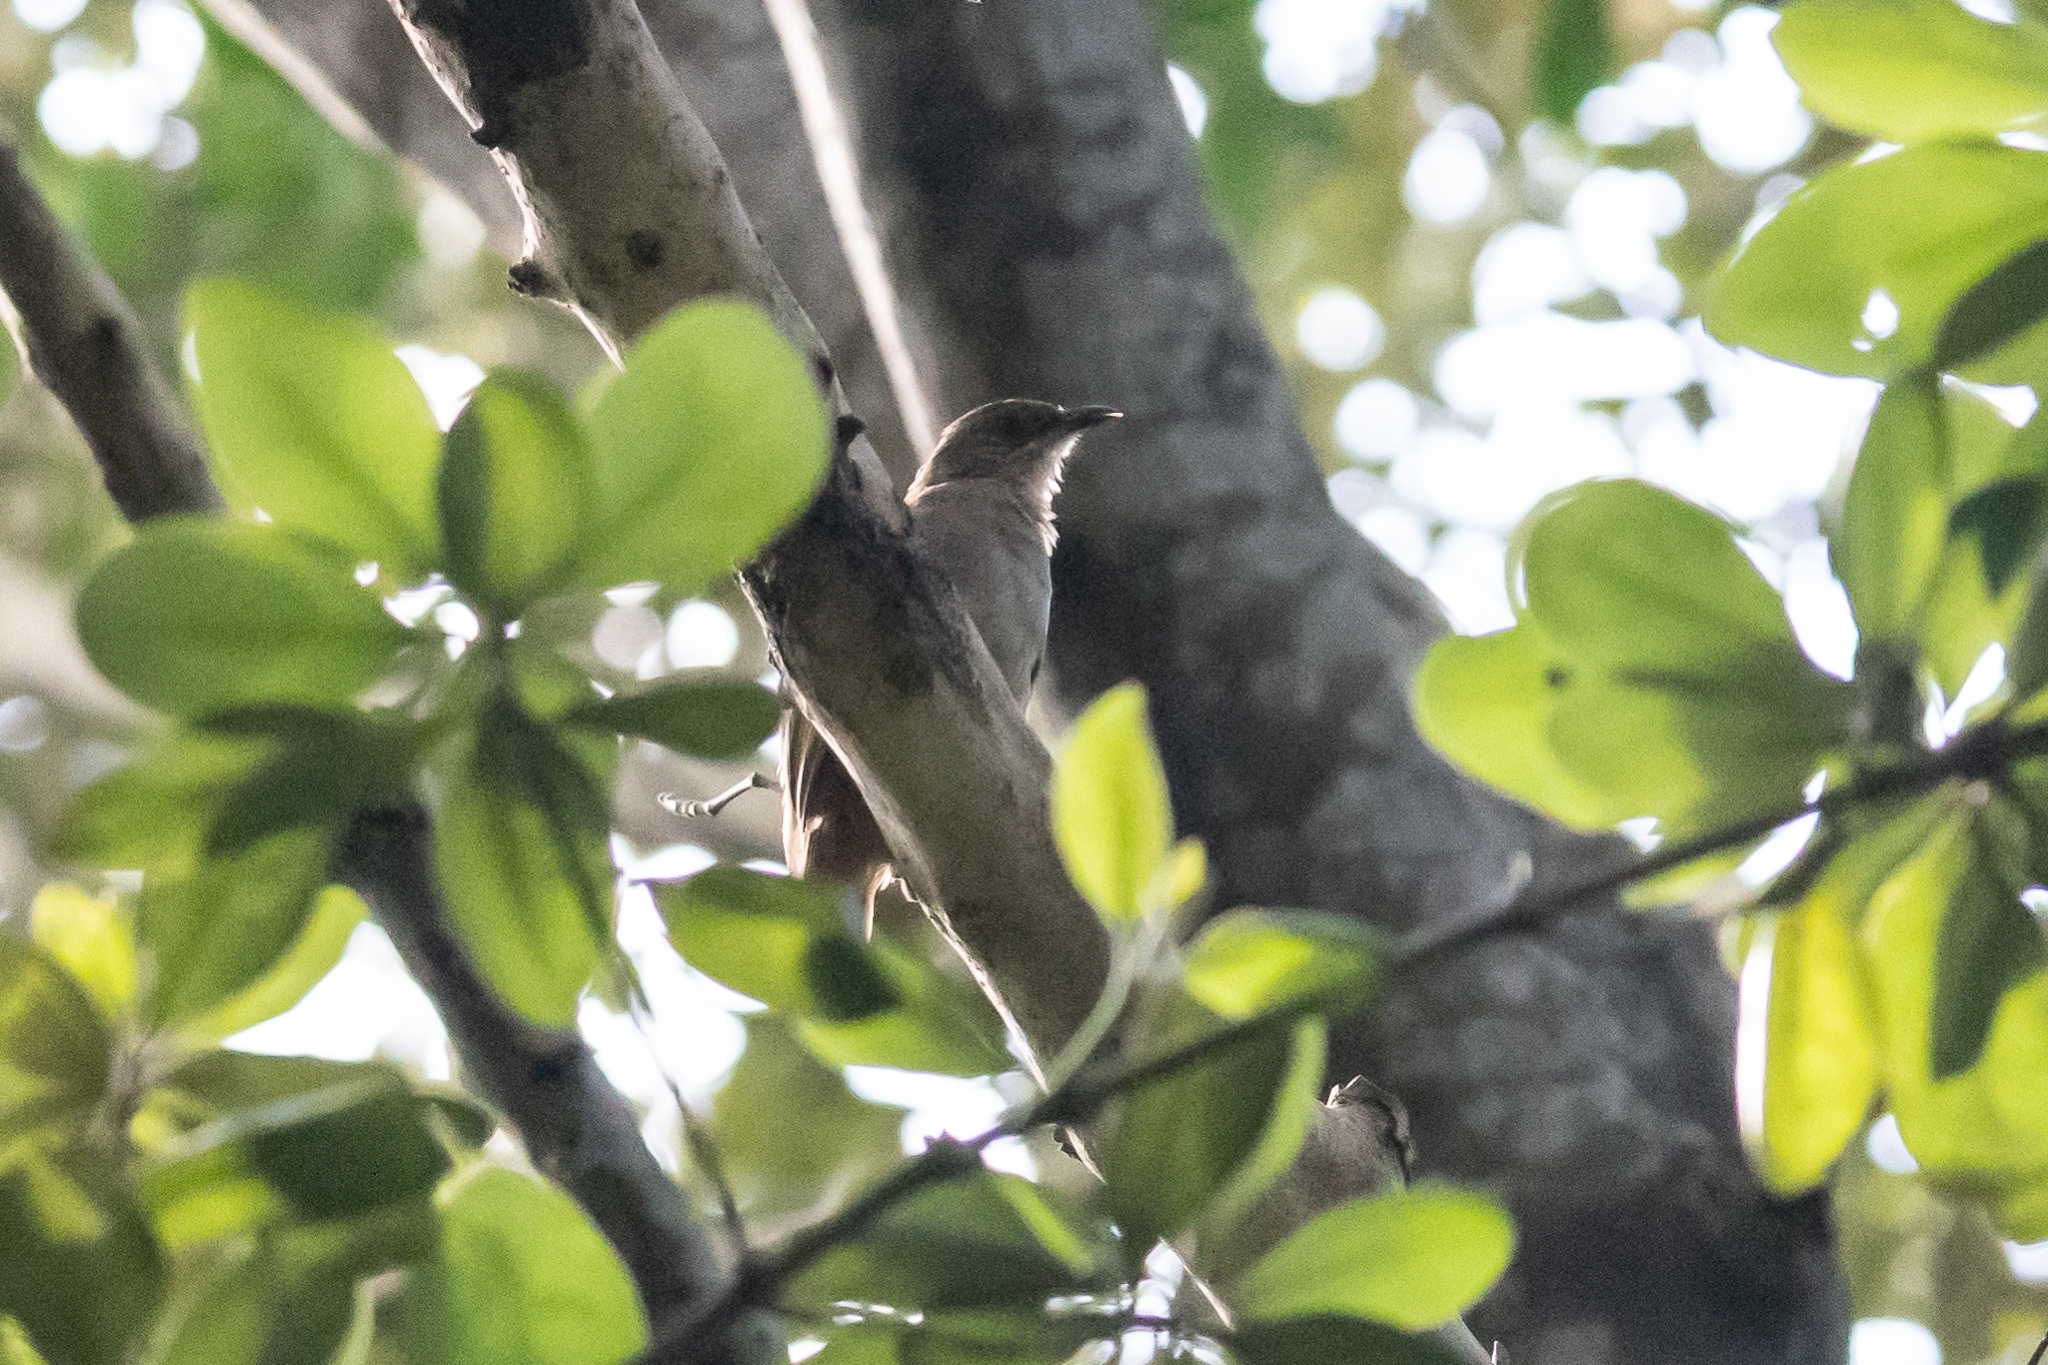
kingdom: Animalia
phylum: Chordata
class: Aves
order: Passeriformes
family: Pycnonotidae
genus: Pycnonotus
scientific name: Pycnonotus plumosus
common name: Olive-winged bulbul
